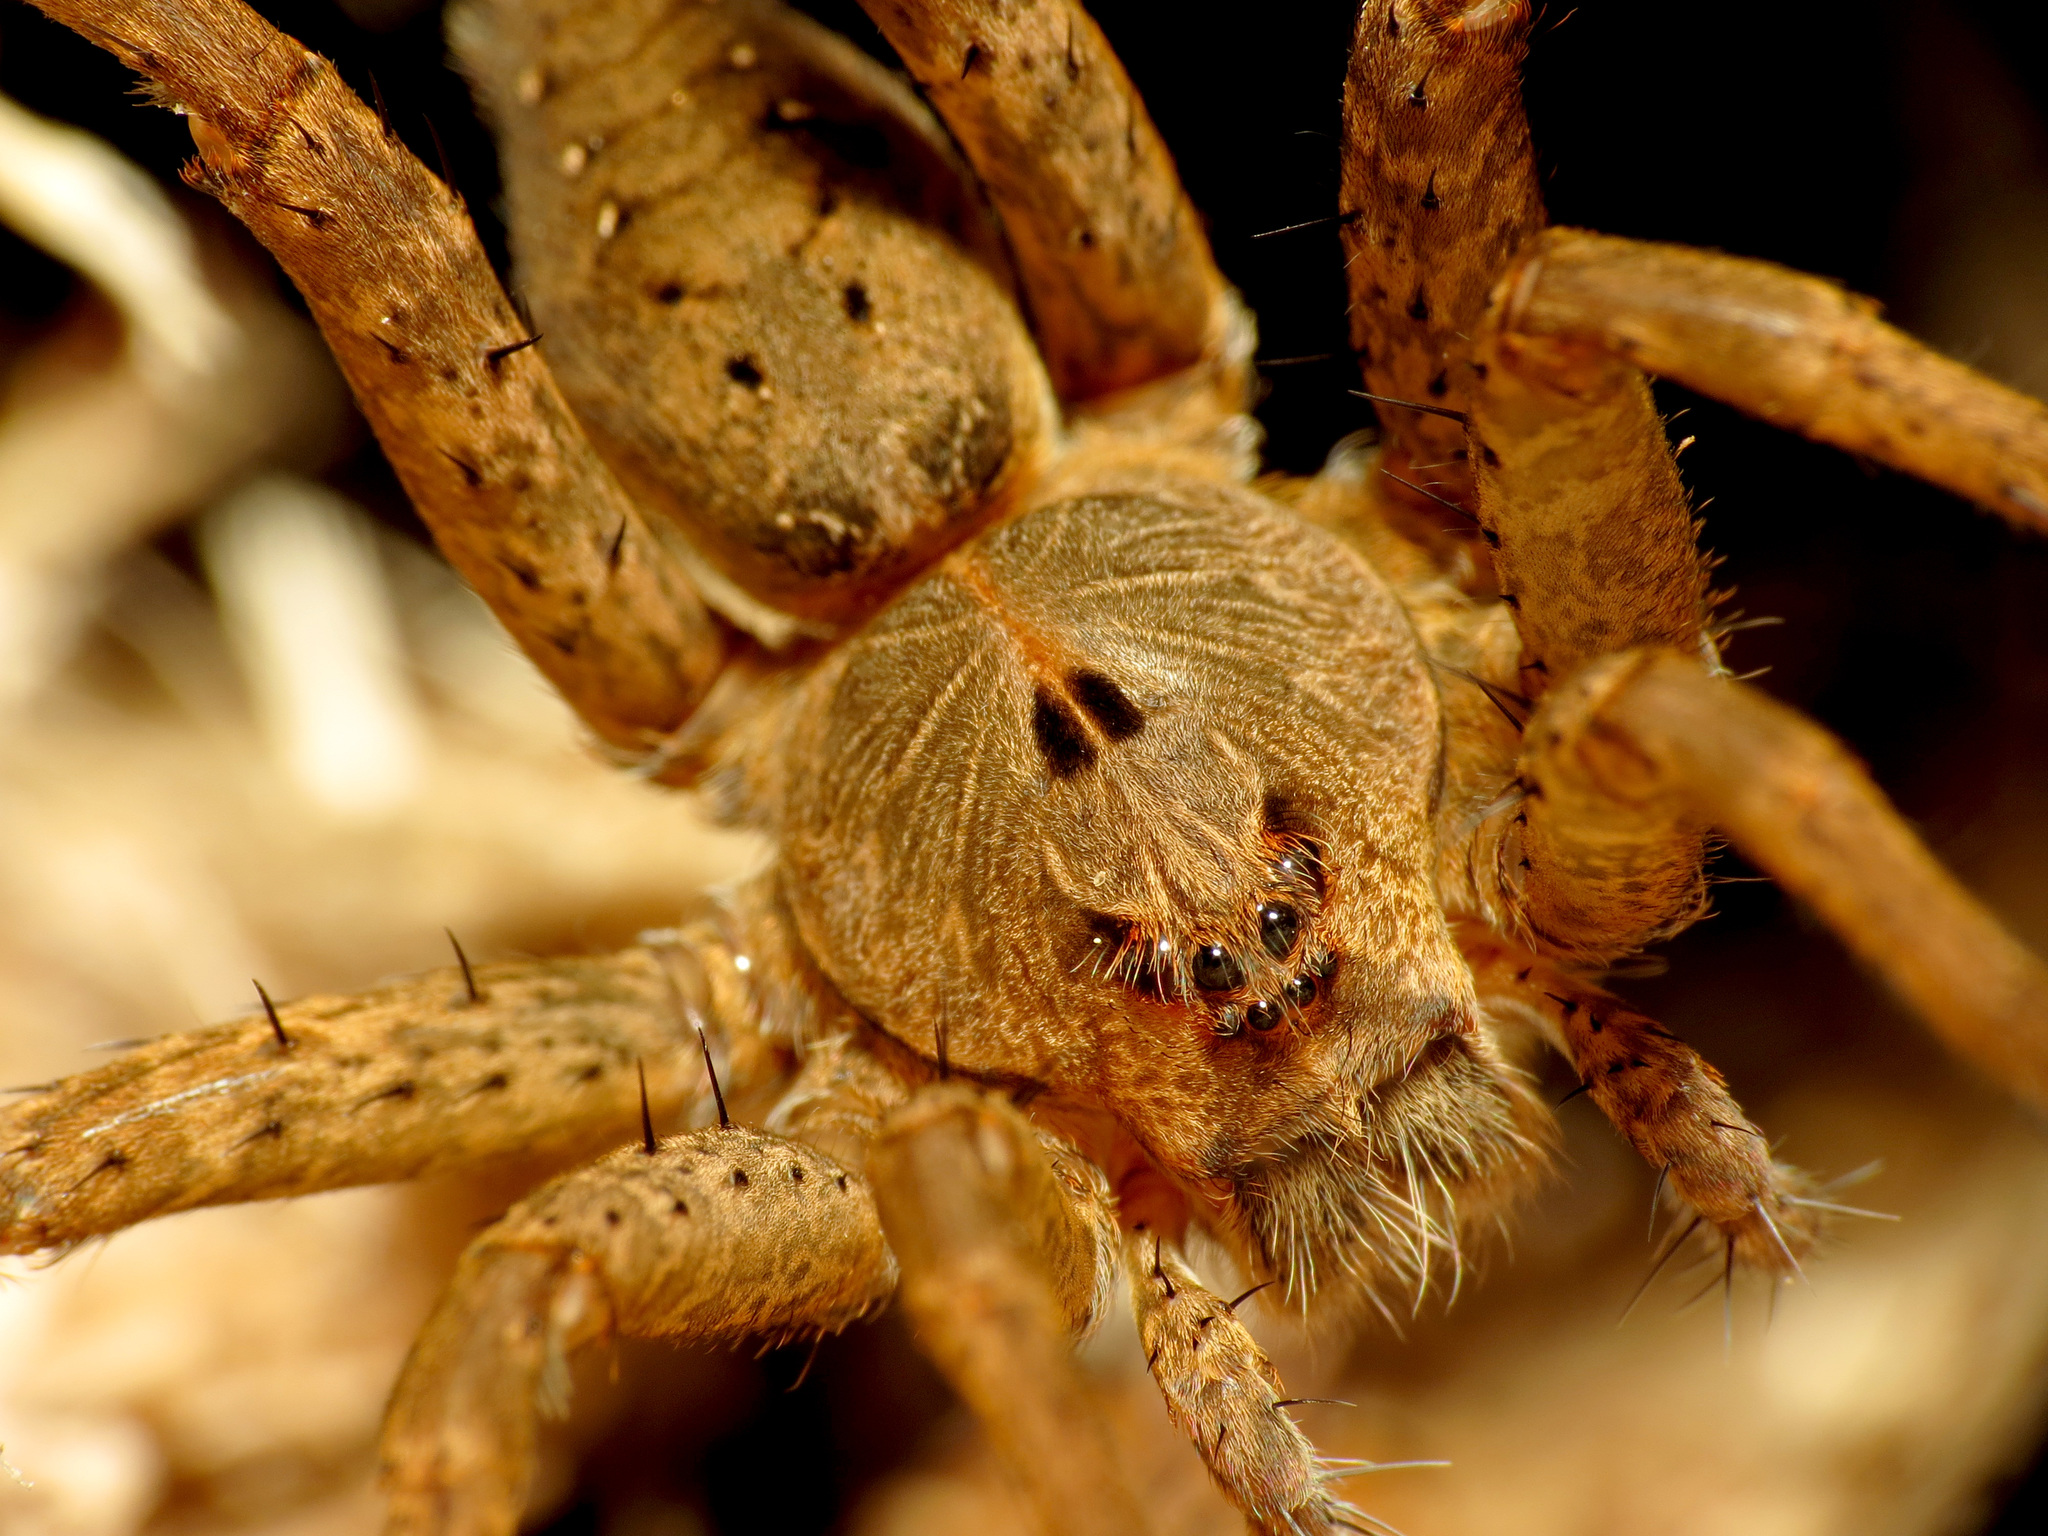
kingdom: Animalia
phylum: Arthropoda
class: Arachnida
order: Araneae
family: Pisauridae
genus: Dolomedes
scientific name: Dolomedes vittatus
